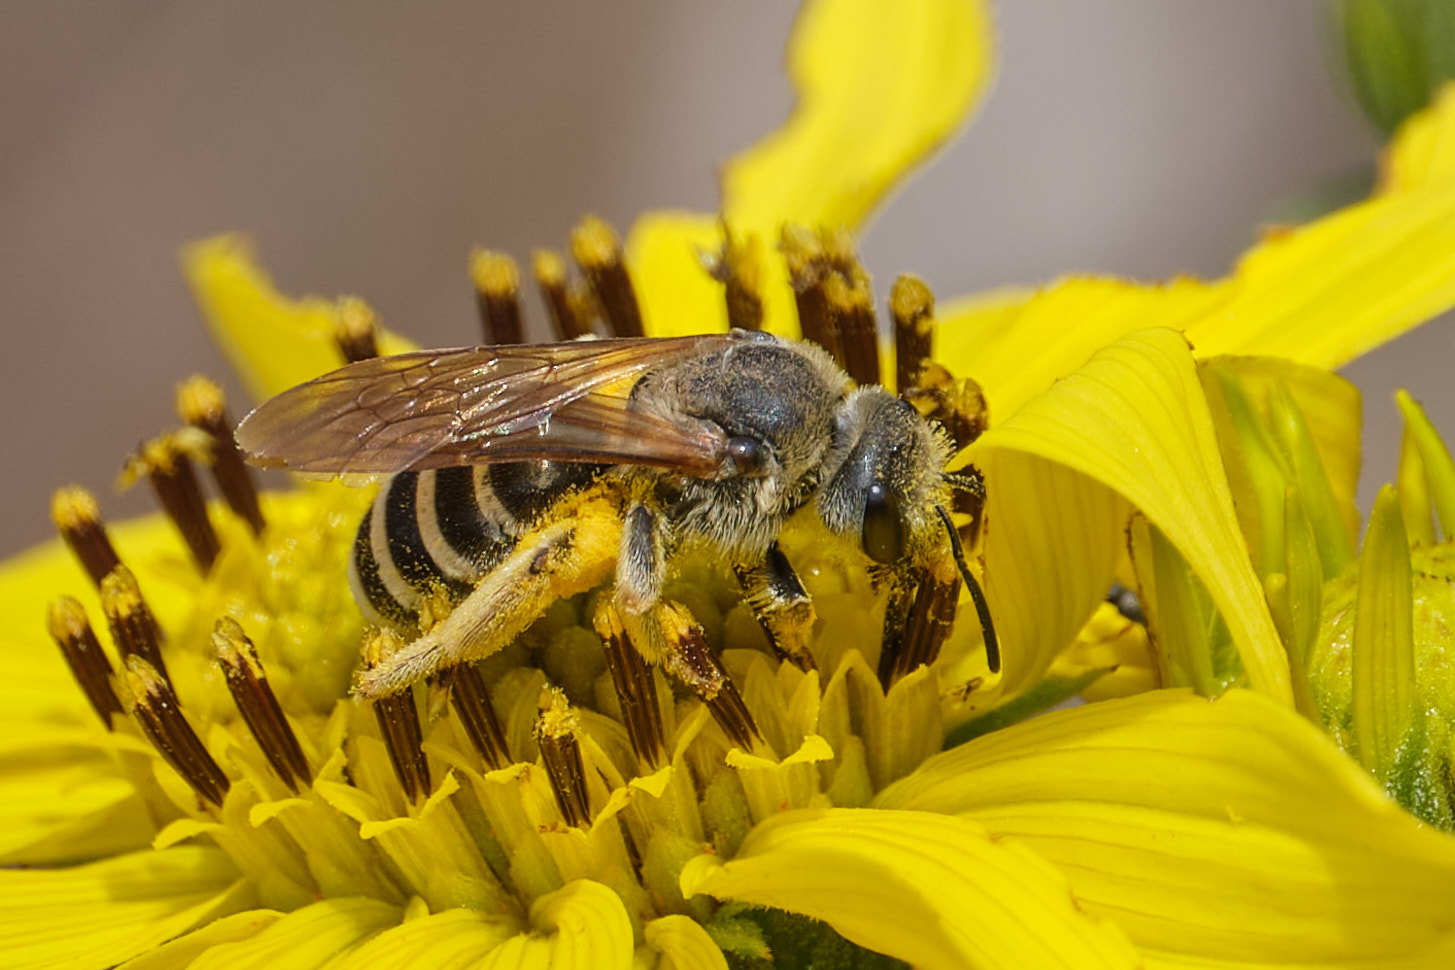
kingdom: Animalia
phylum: Arthropoda
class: Insecta
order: Hymenoptera
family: Halictidae
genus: Halictus
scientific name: Halictus farinosus
